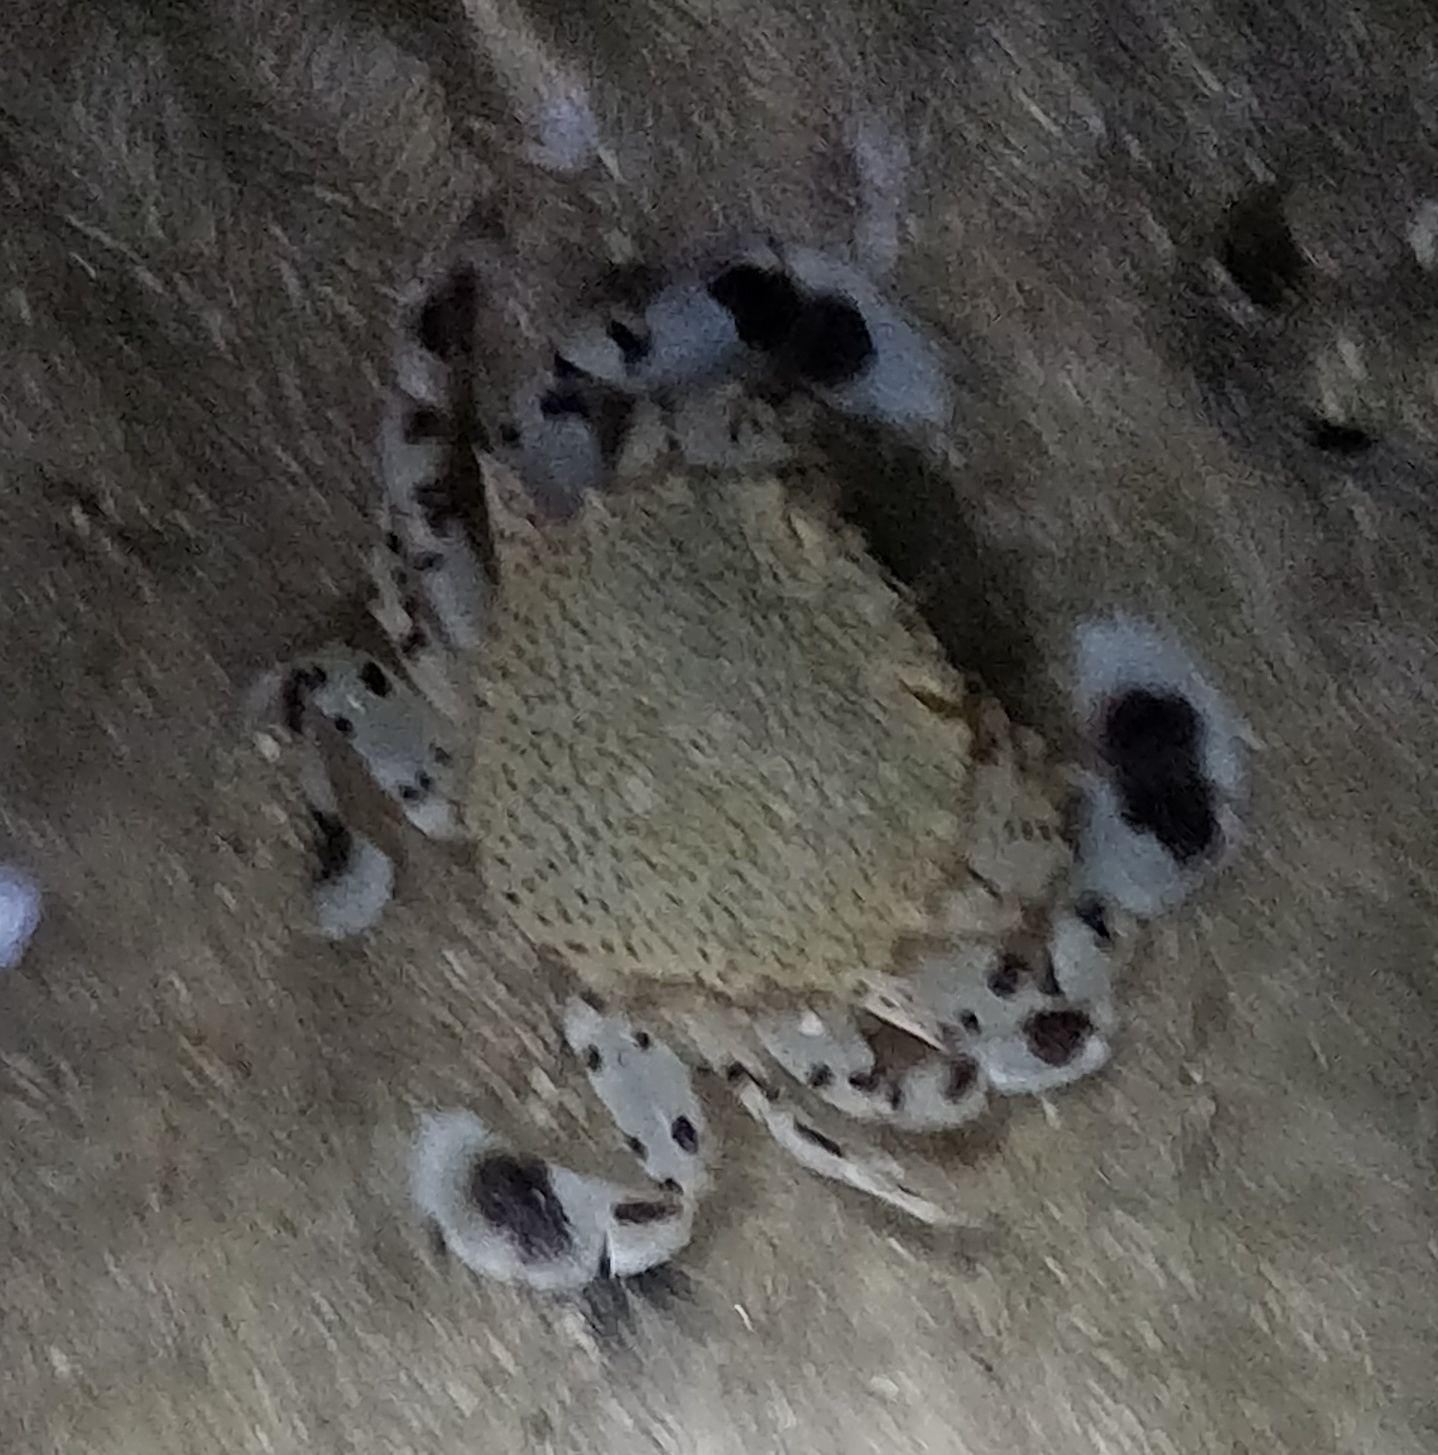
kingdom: Animalia
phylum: Arthropoda
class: Malacostraca
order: Decapoda
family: Matutidae
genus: Ashtoret
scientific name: Ashtoret lunaris
